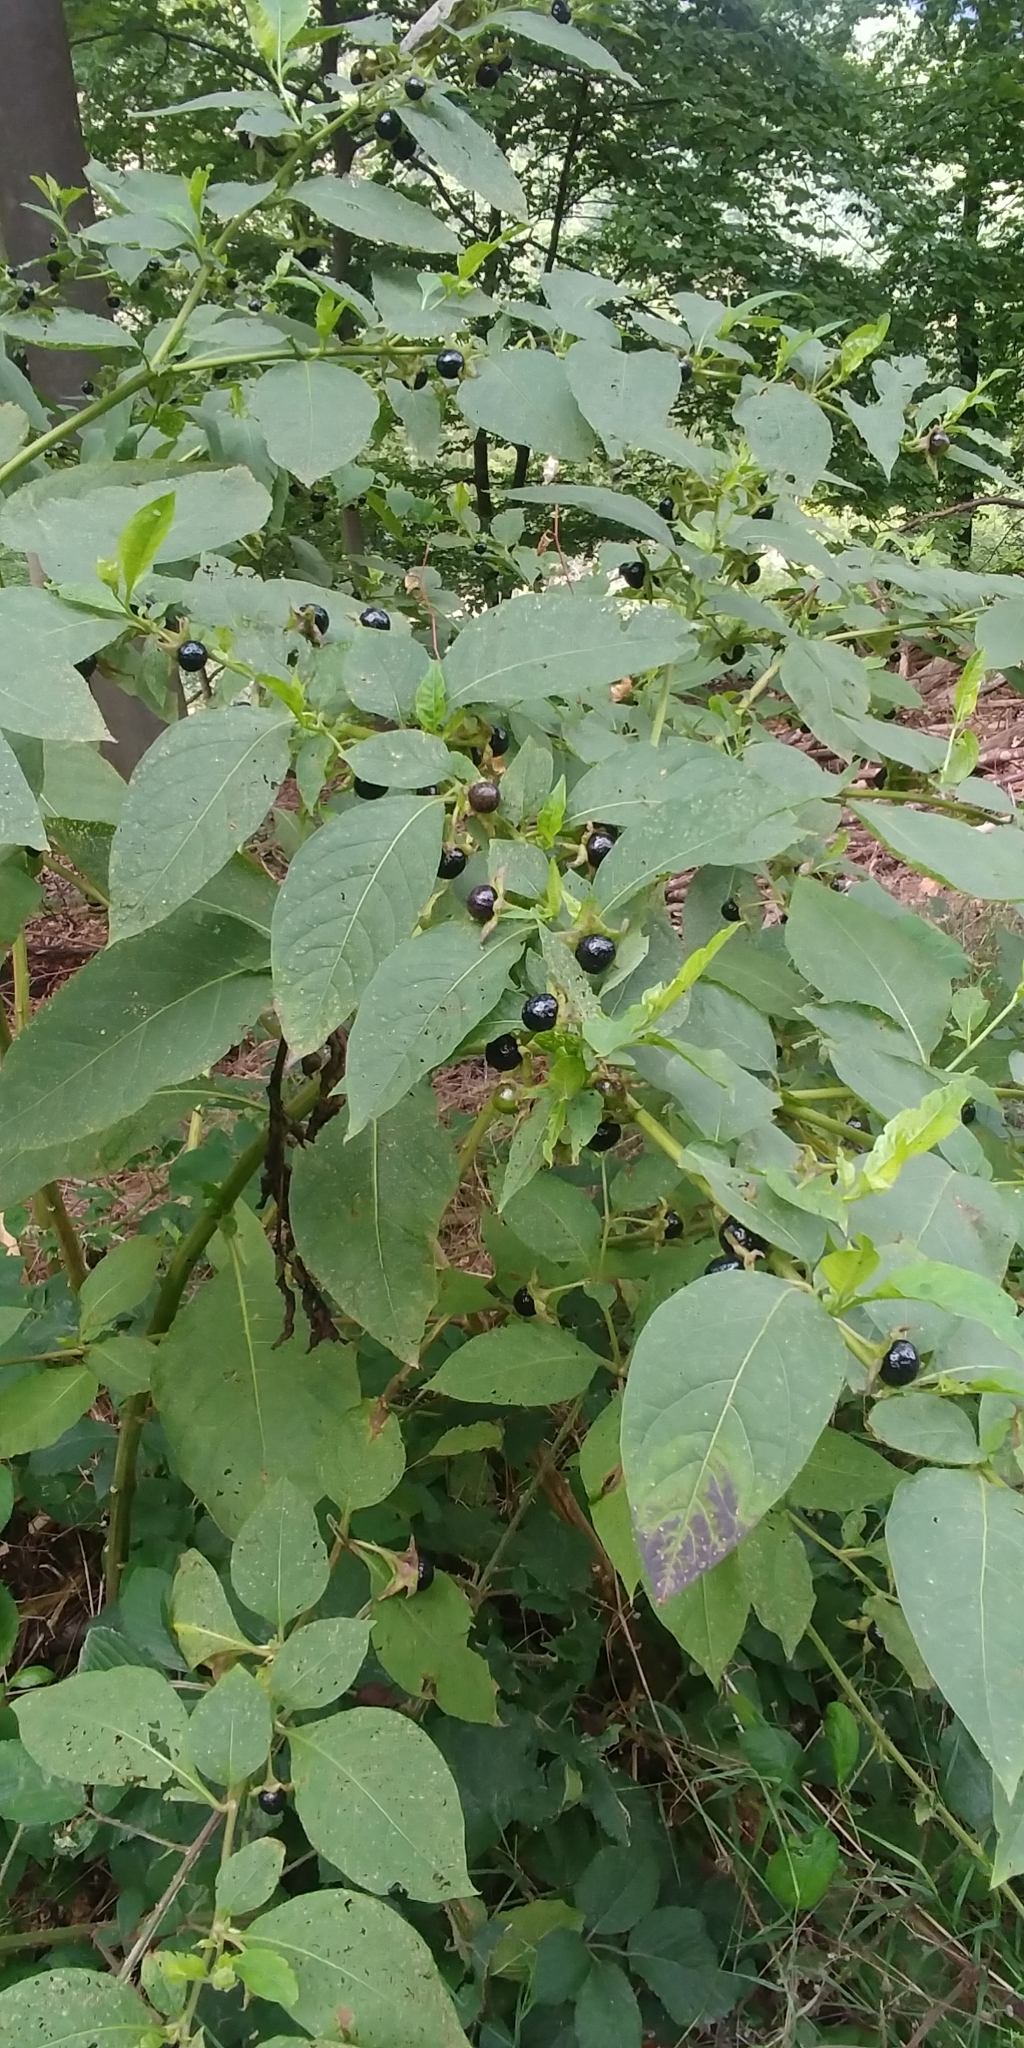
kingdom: Plantae
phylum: Tracheophyta
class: Magnoliopsida
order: Solanales
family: Solanaceae
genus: Atropa
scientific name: Atropa belladonna
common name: Deadly nightshade
